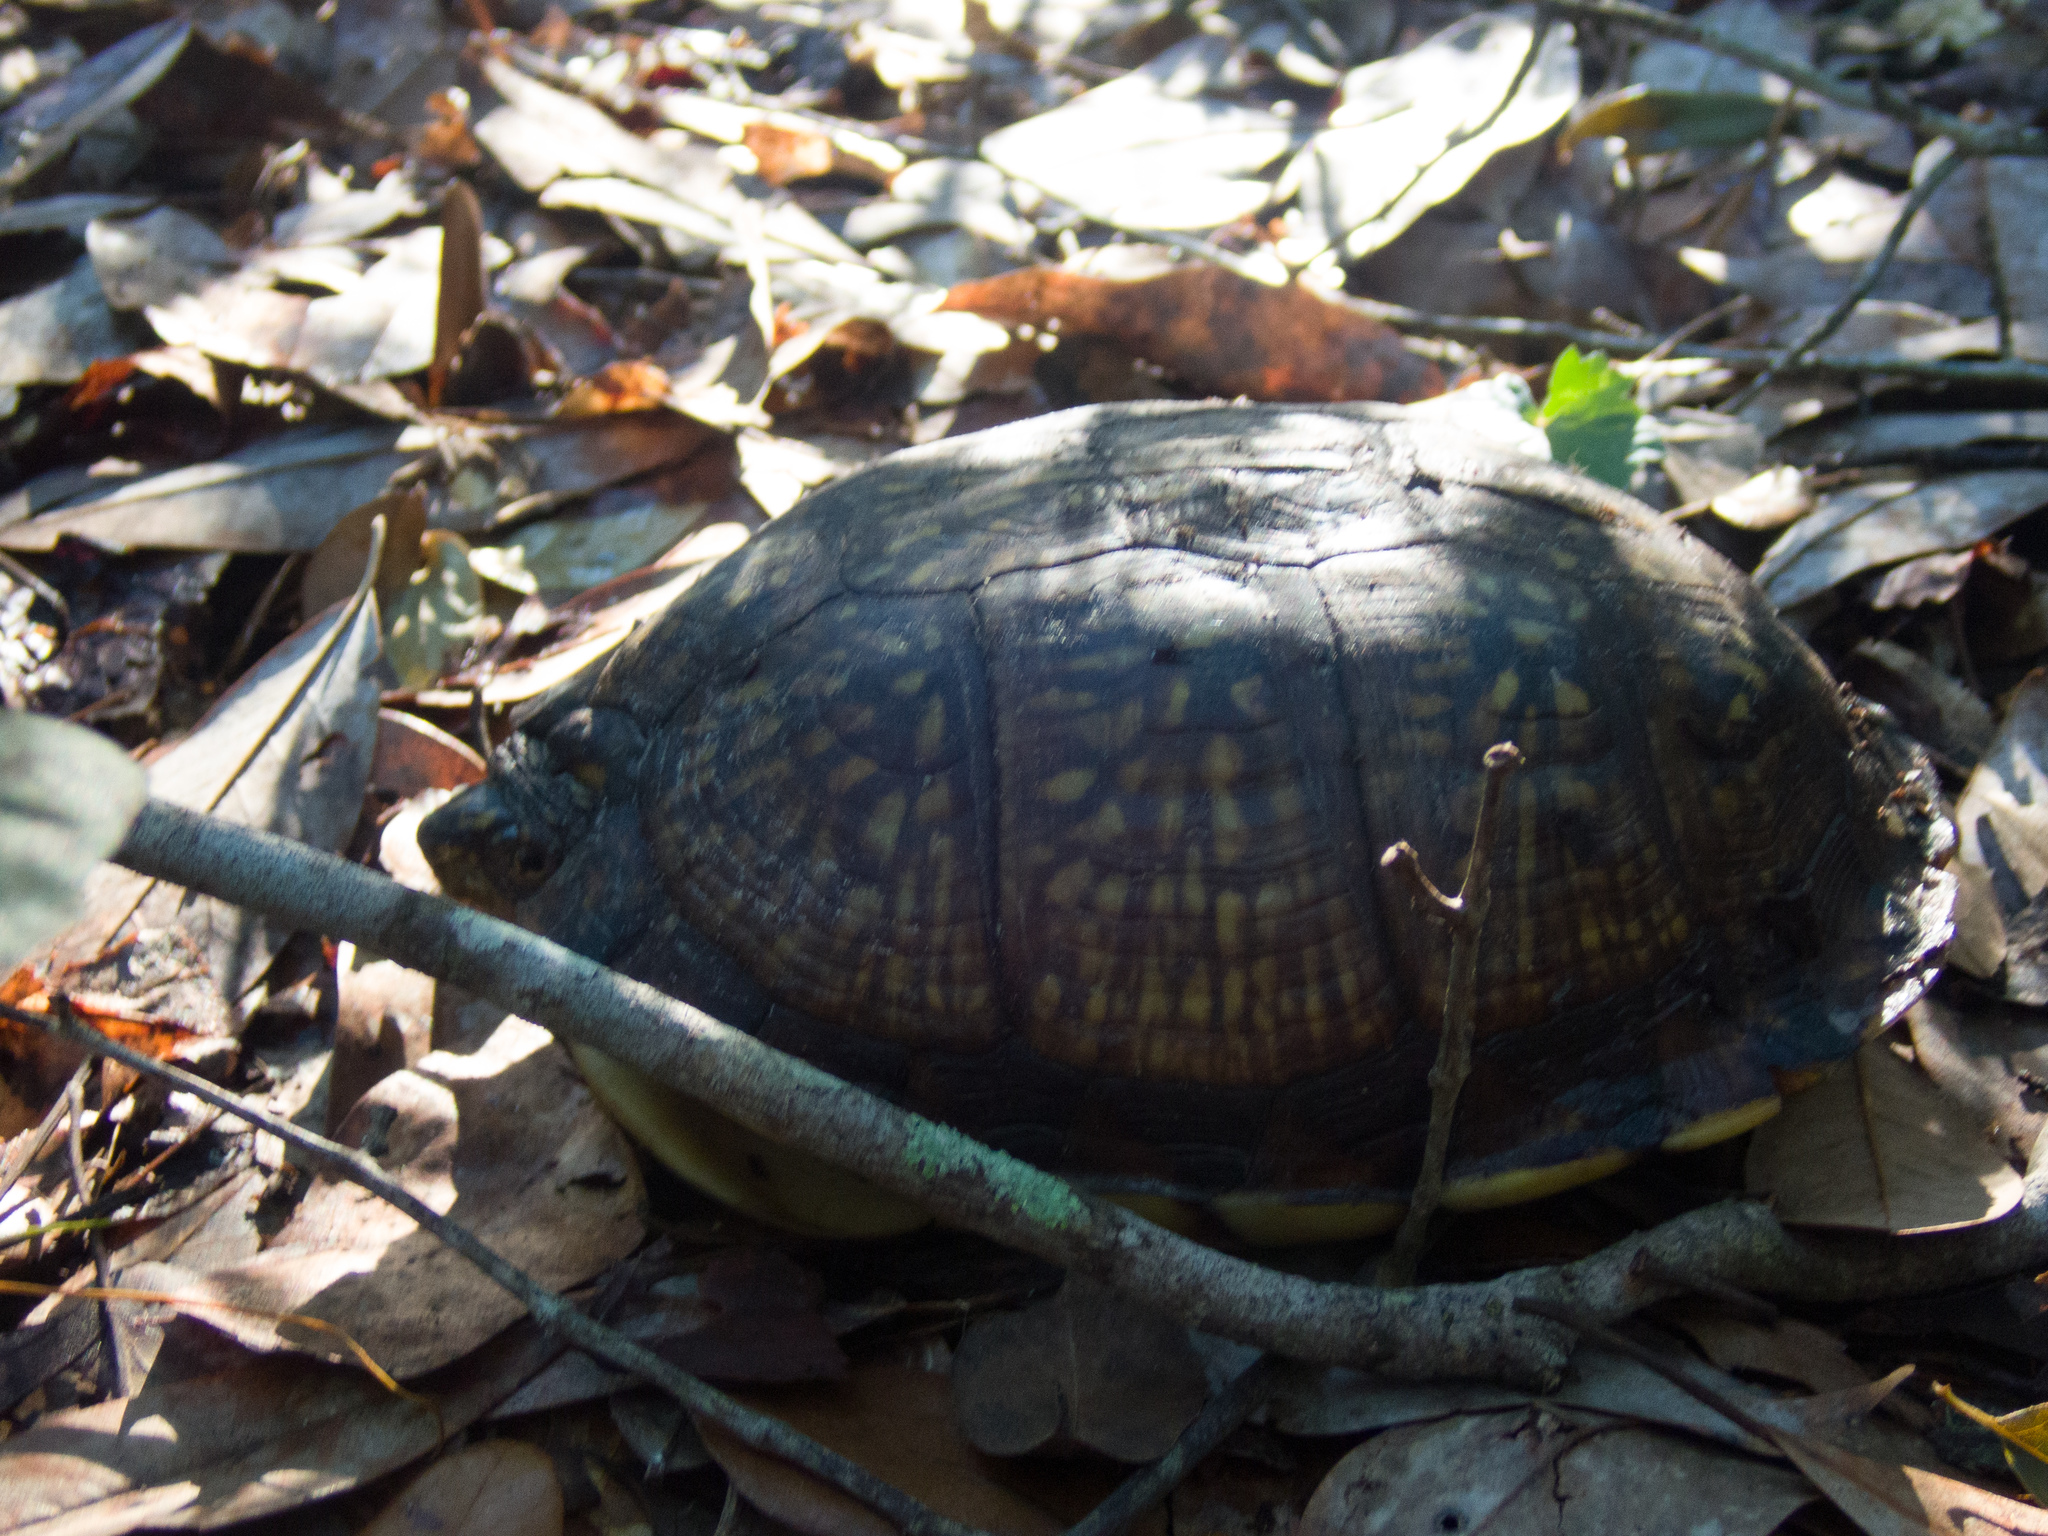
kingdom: Animalia
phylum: Chordata
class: Testudines
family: Emydidae
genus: Terrapene
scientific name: Terrapene carolina
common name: Common box turtle
